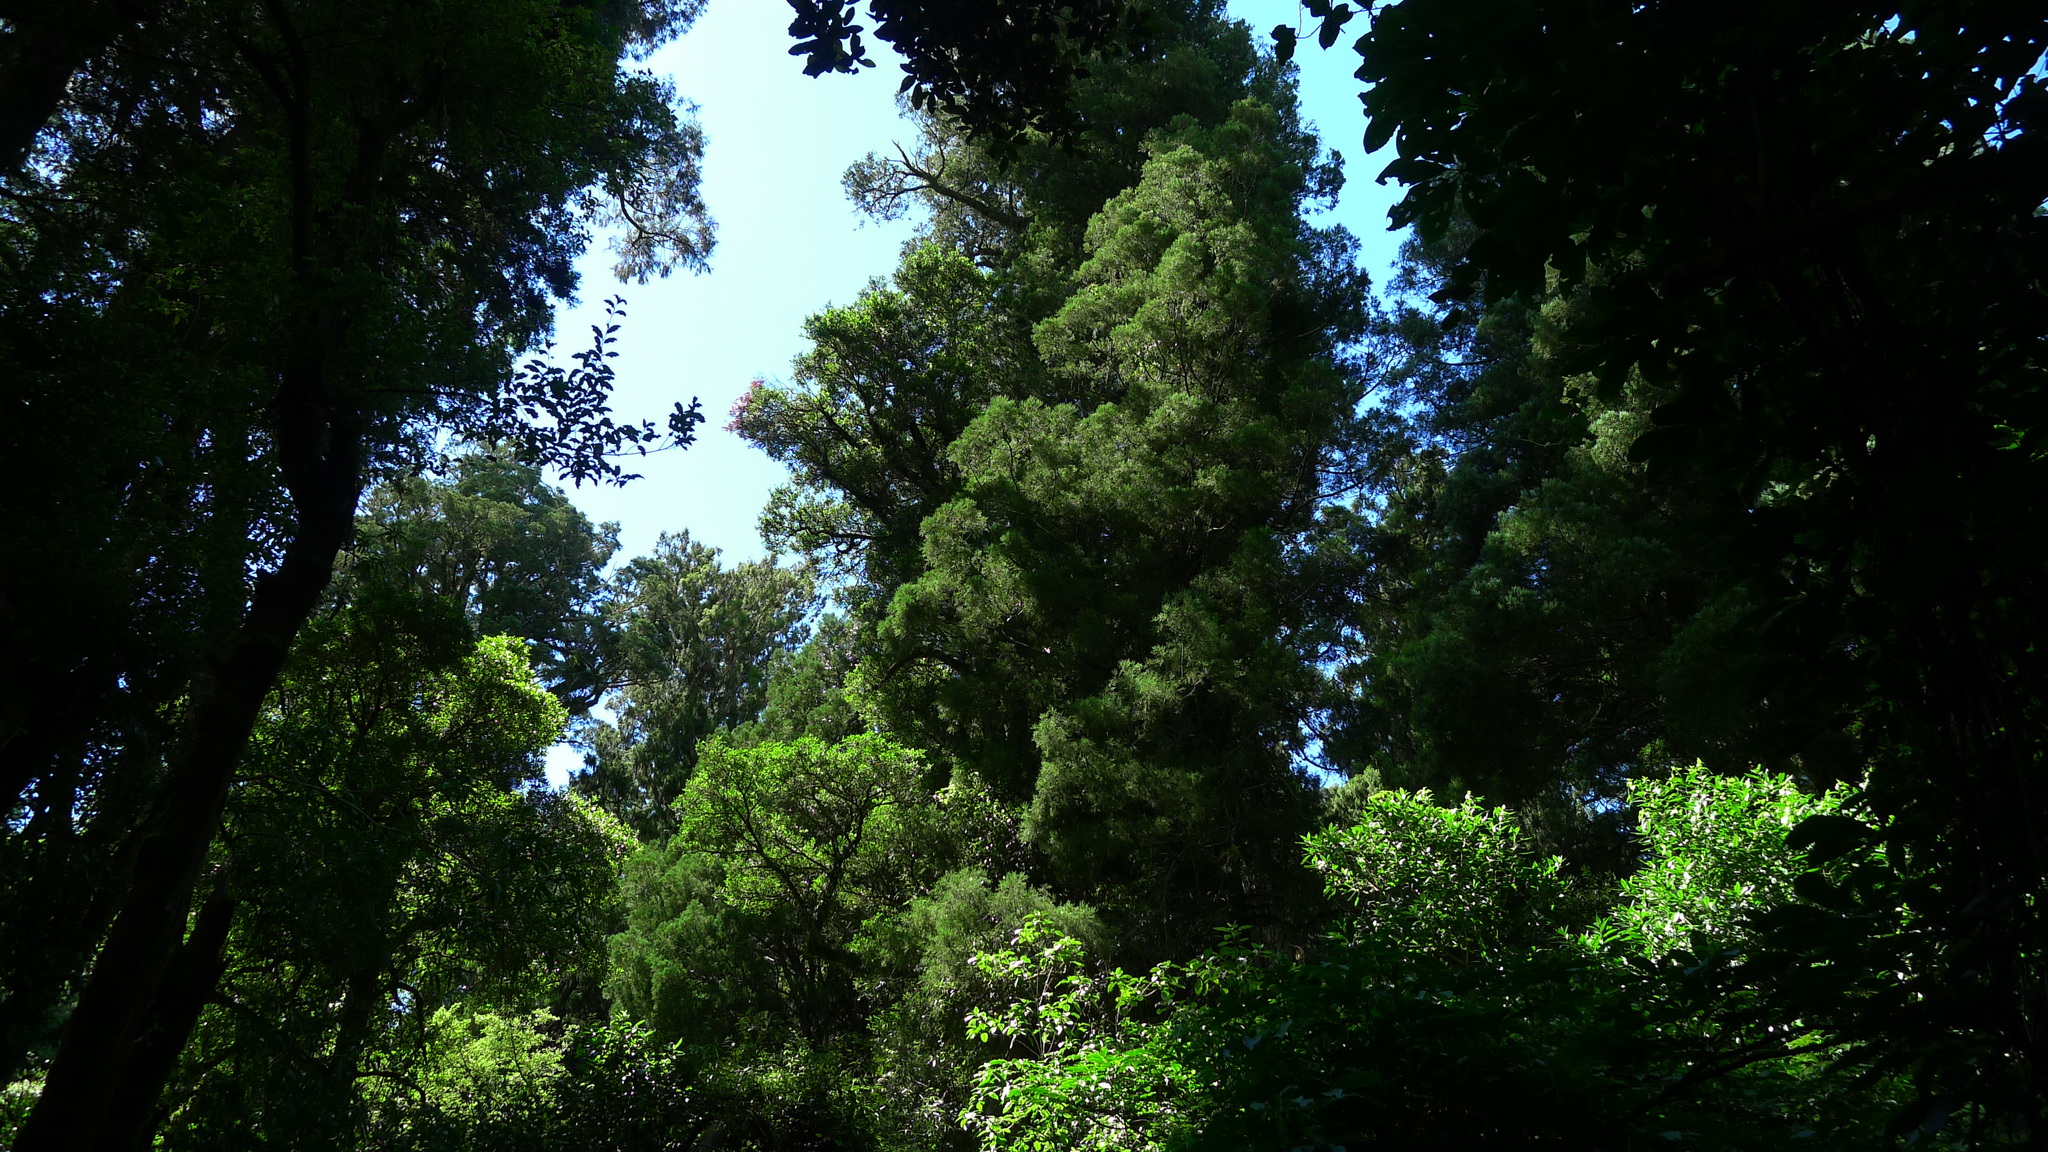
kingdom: Plantae
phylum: Tracheophyta
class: Pinopsida
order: Pinales
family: Podocarpaceae
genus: Dacrycarpus
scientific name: Dacrycarpus dacrydioides
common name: White pine
